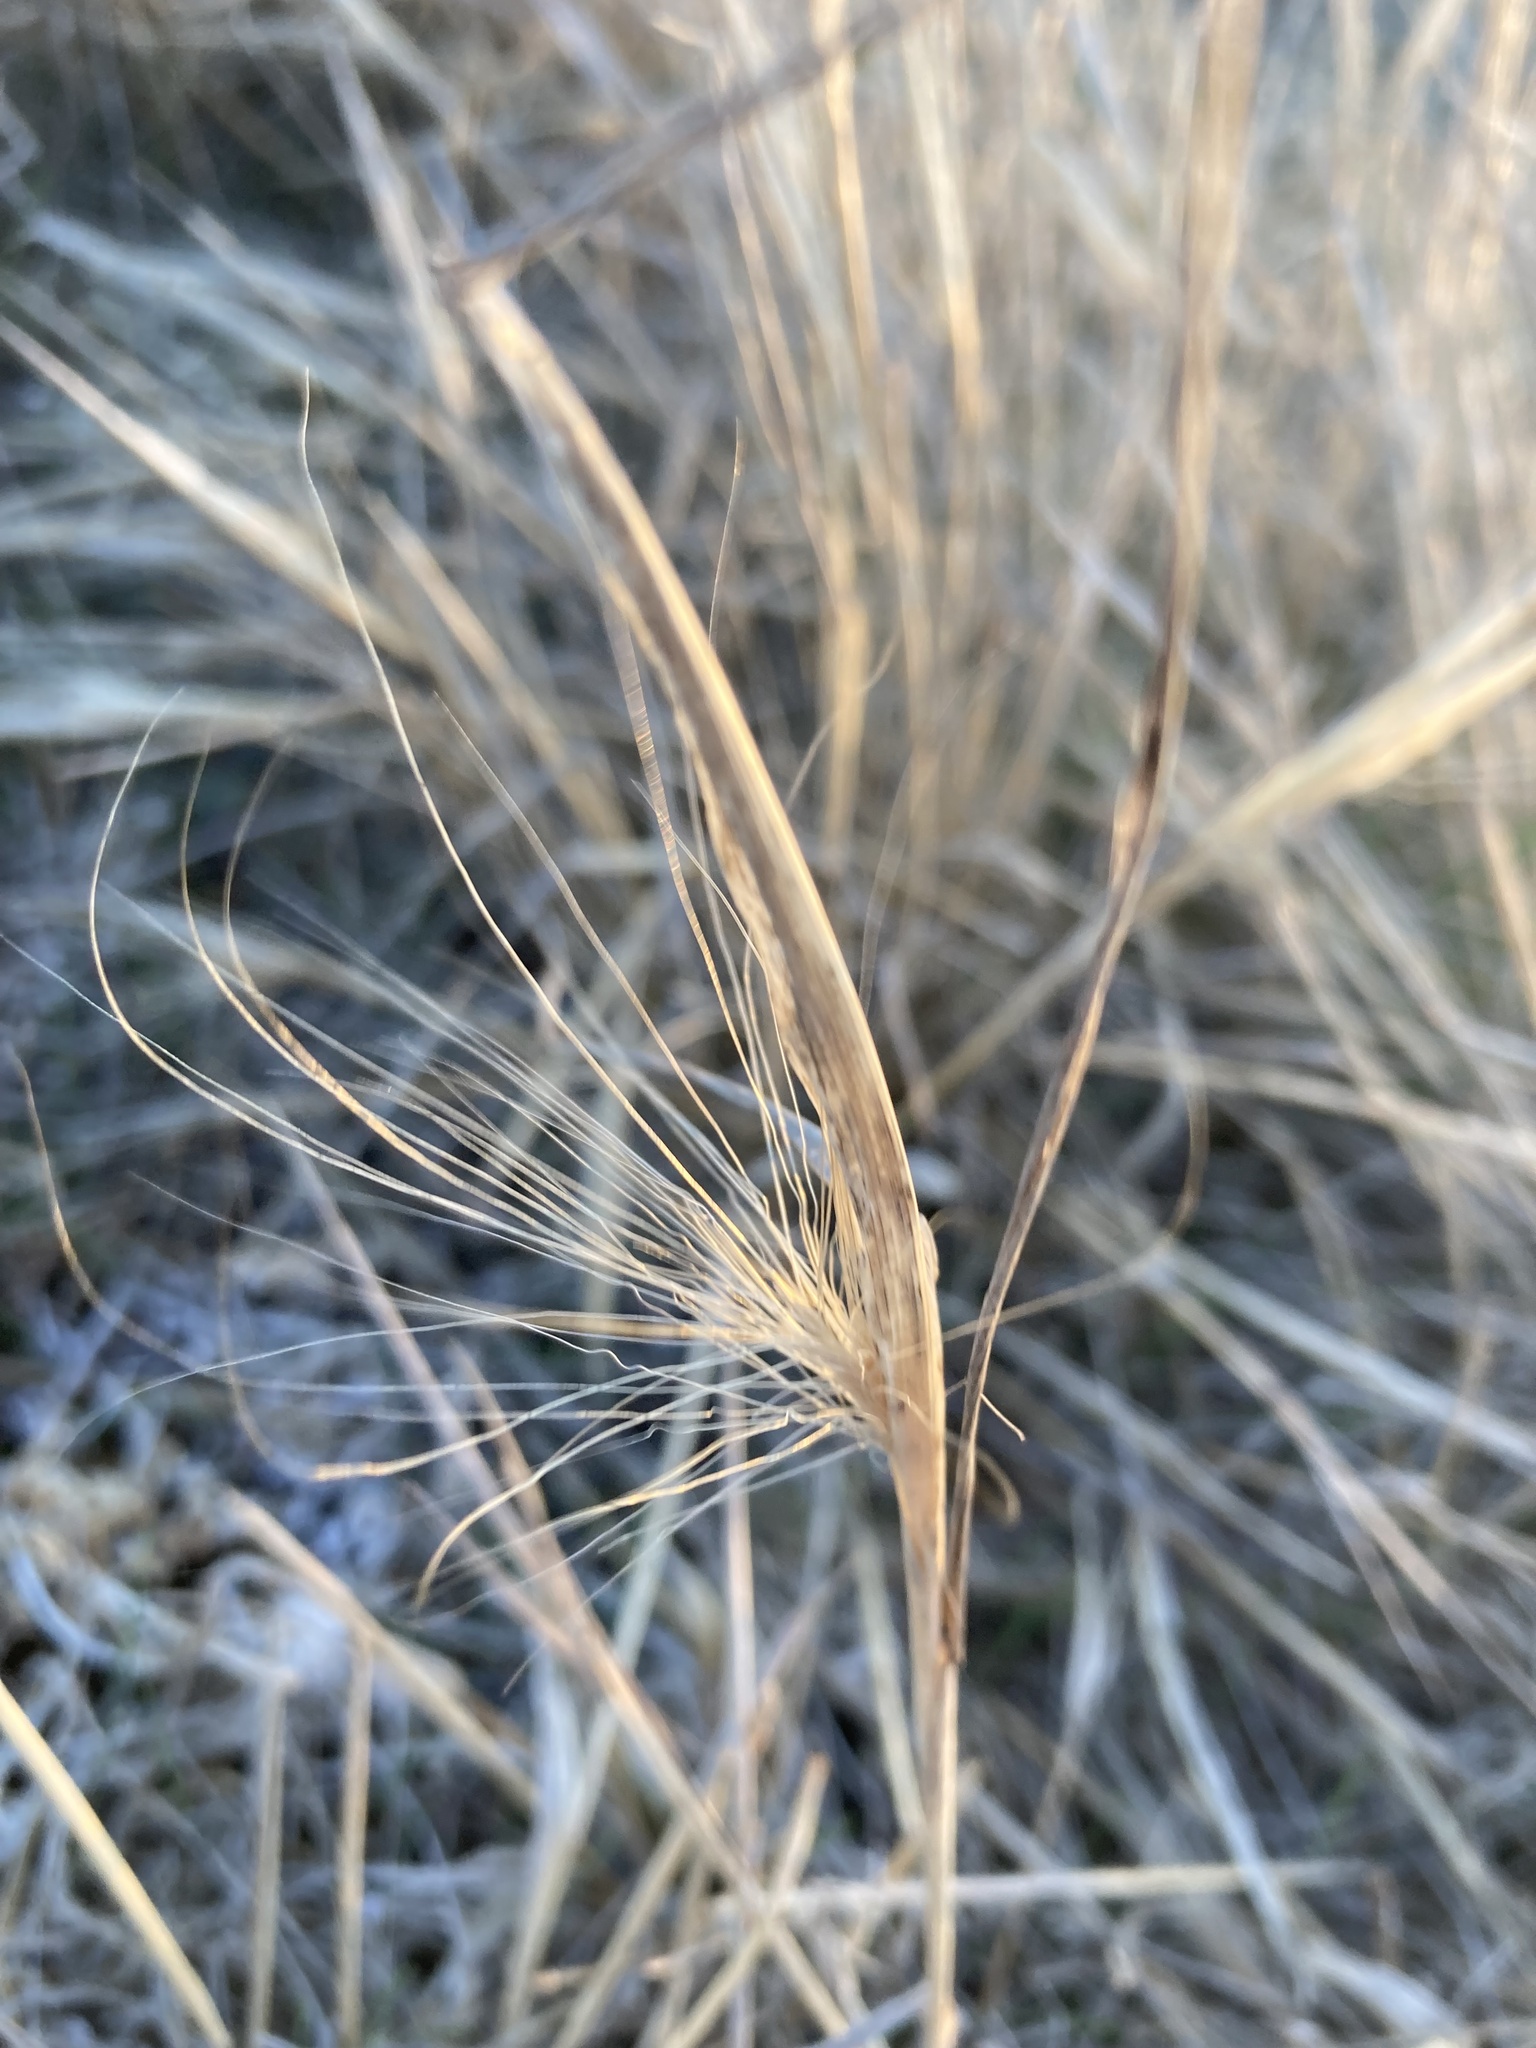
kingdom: Plantae
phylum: Tracheophyta
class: Liliopsida
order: Poales
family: Poaceae
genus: Hordeum
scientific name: Hordeum jubatum
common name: Foxtail barley
